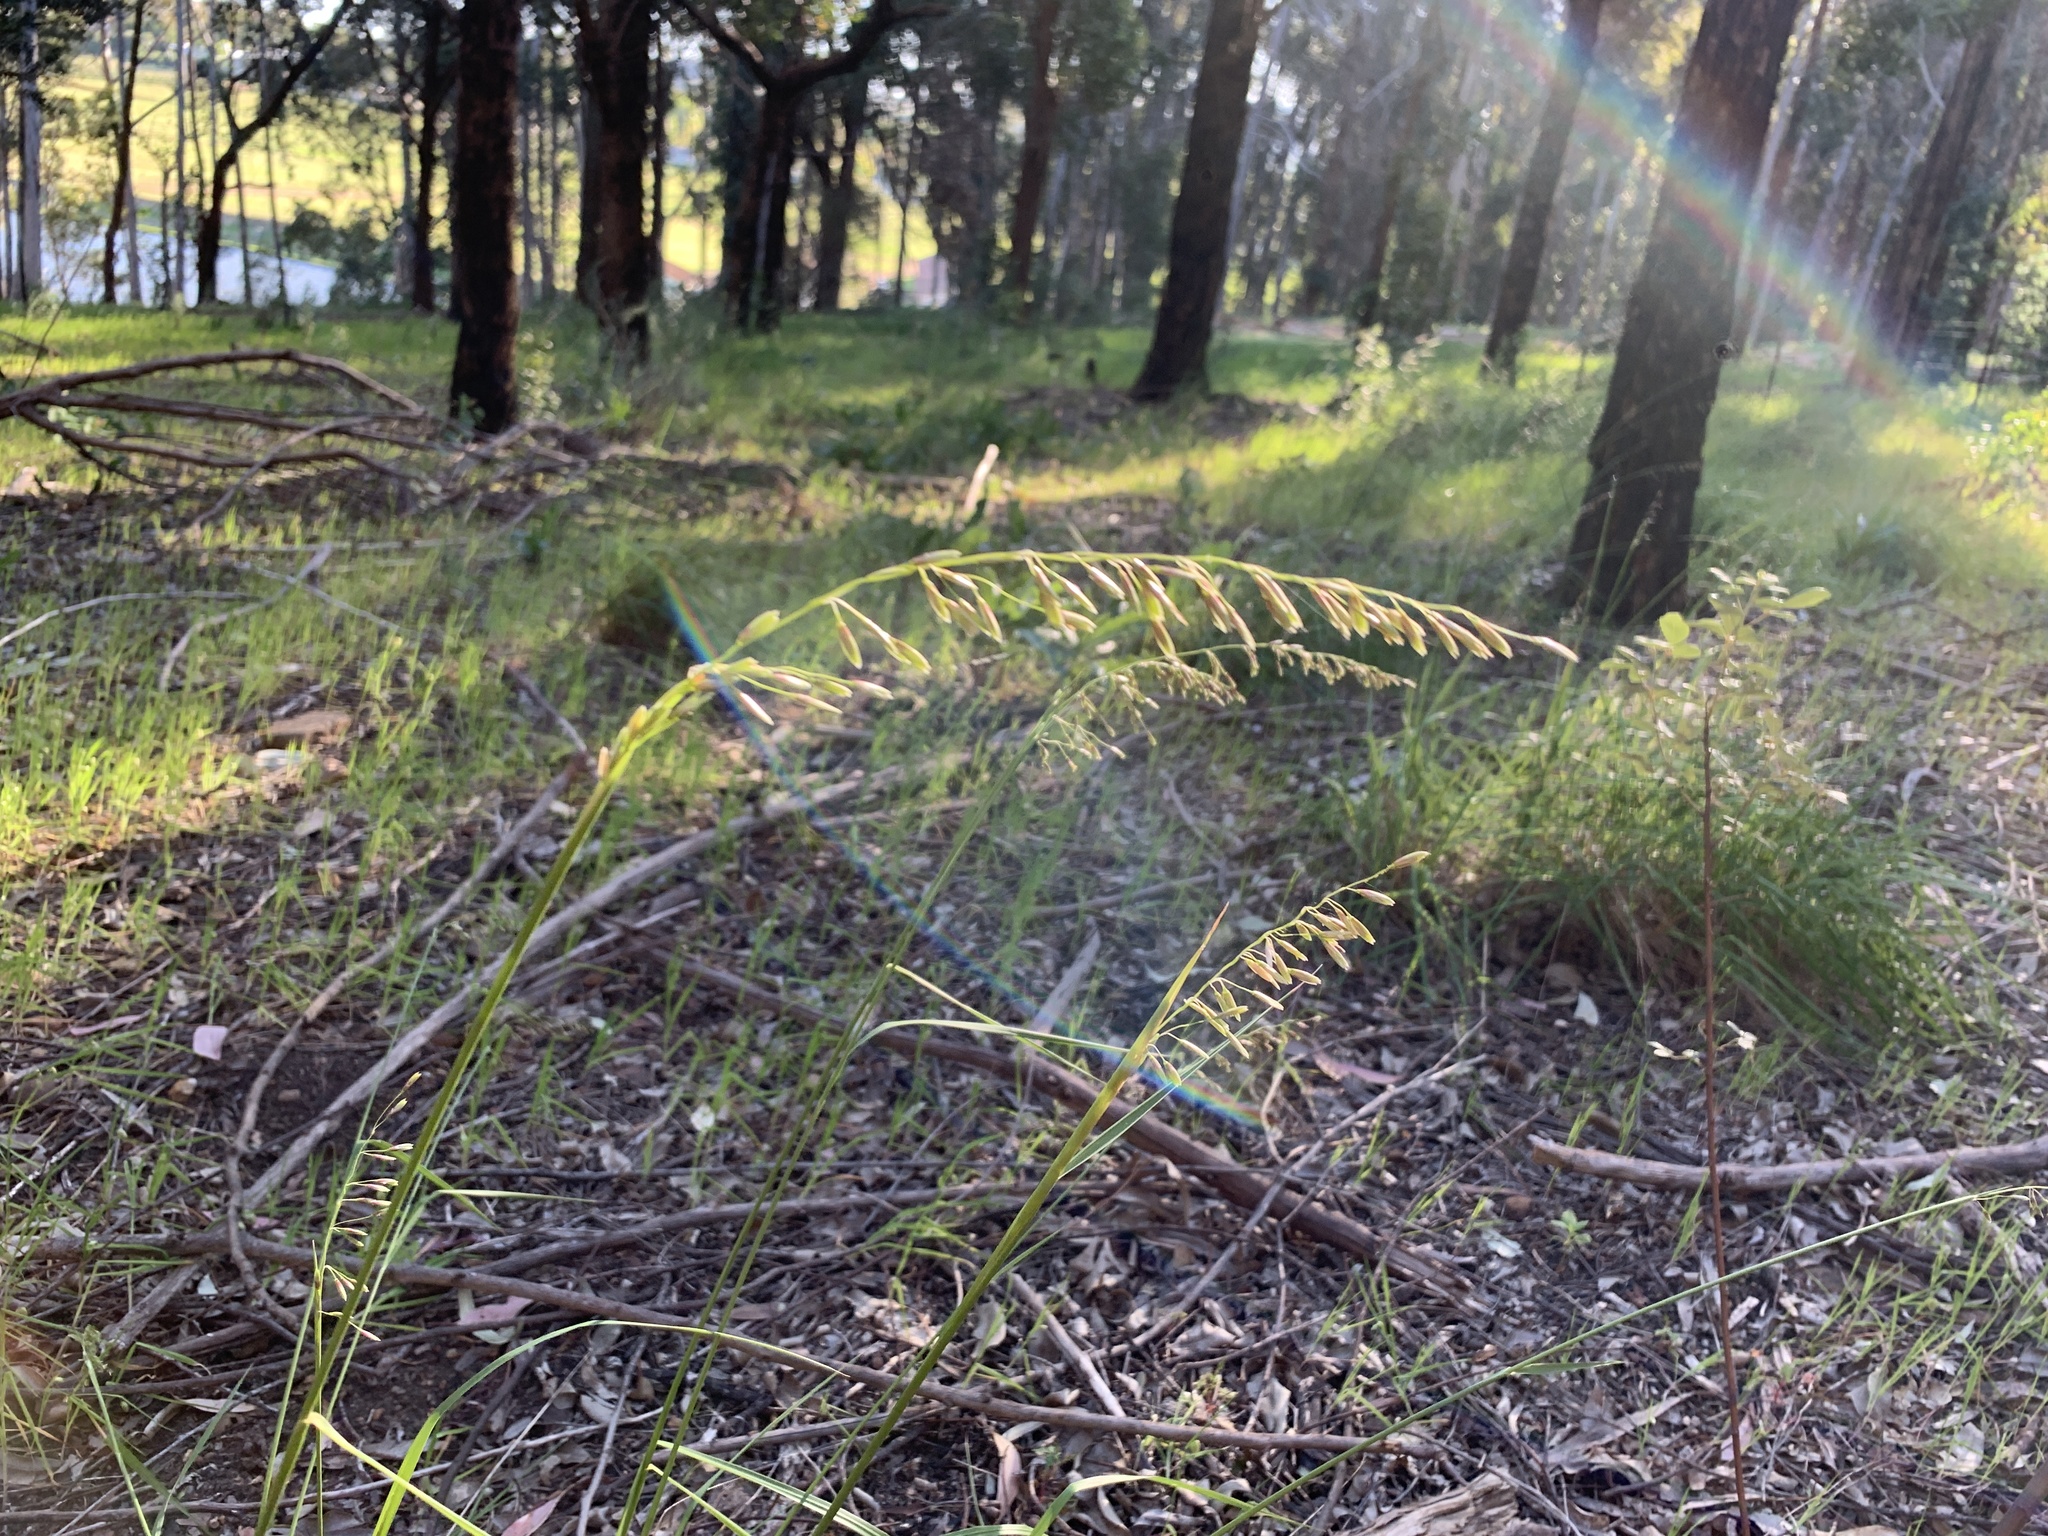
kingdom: Plantae
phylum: Tracheophyta
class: Liliopsida
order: Poales
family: Poaceae
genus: Ehrharta
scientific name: Ehrharta calycina
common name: Perennial veldtgrass
